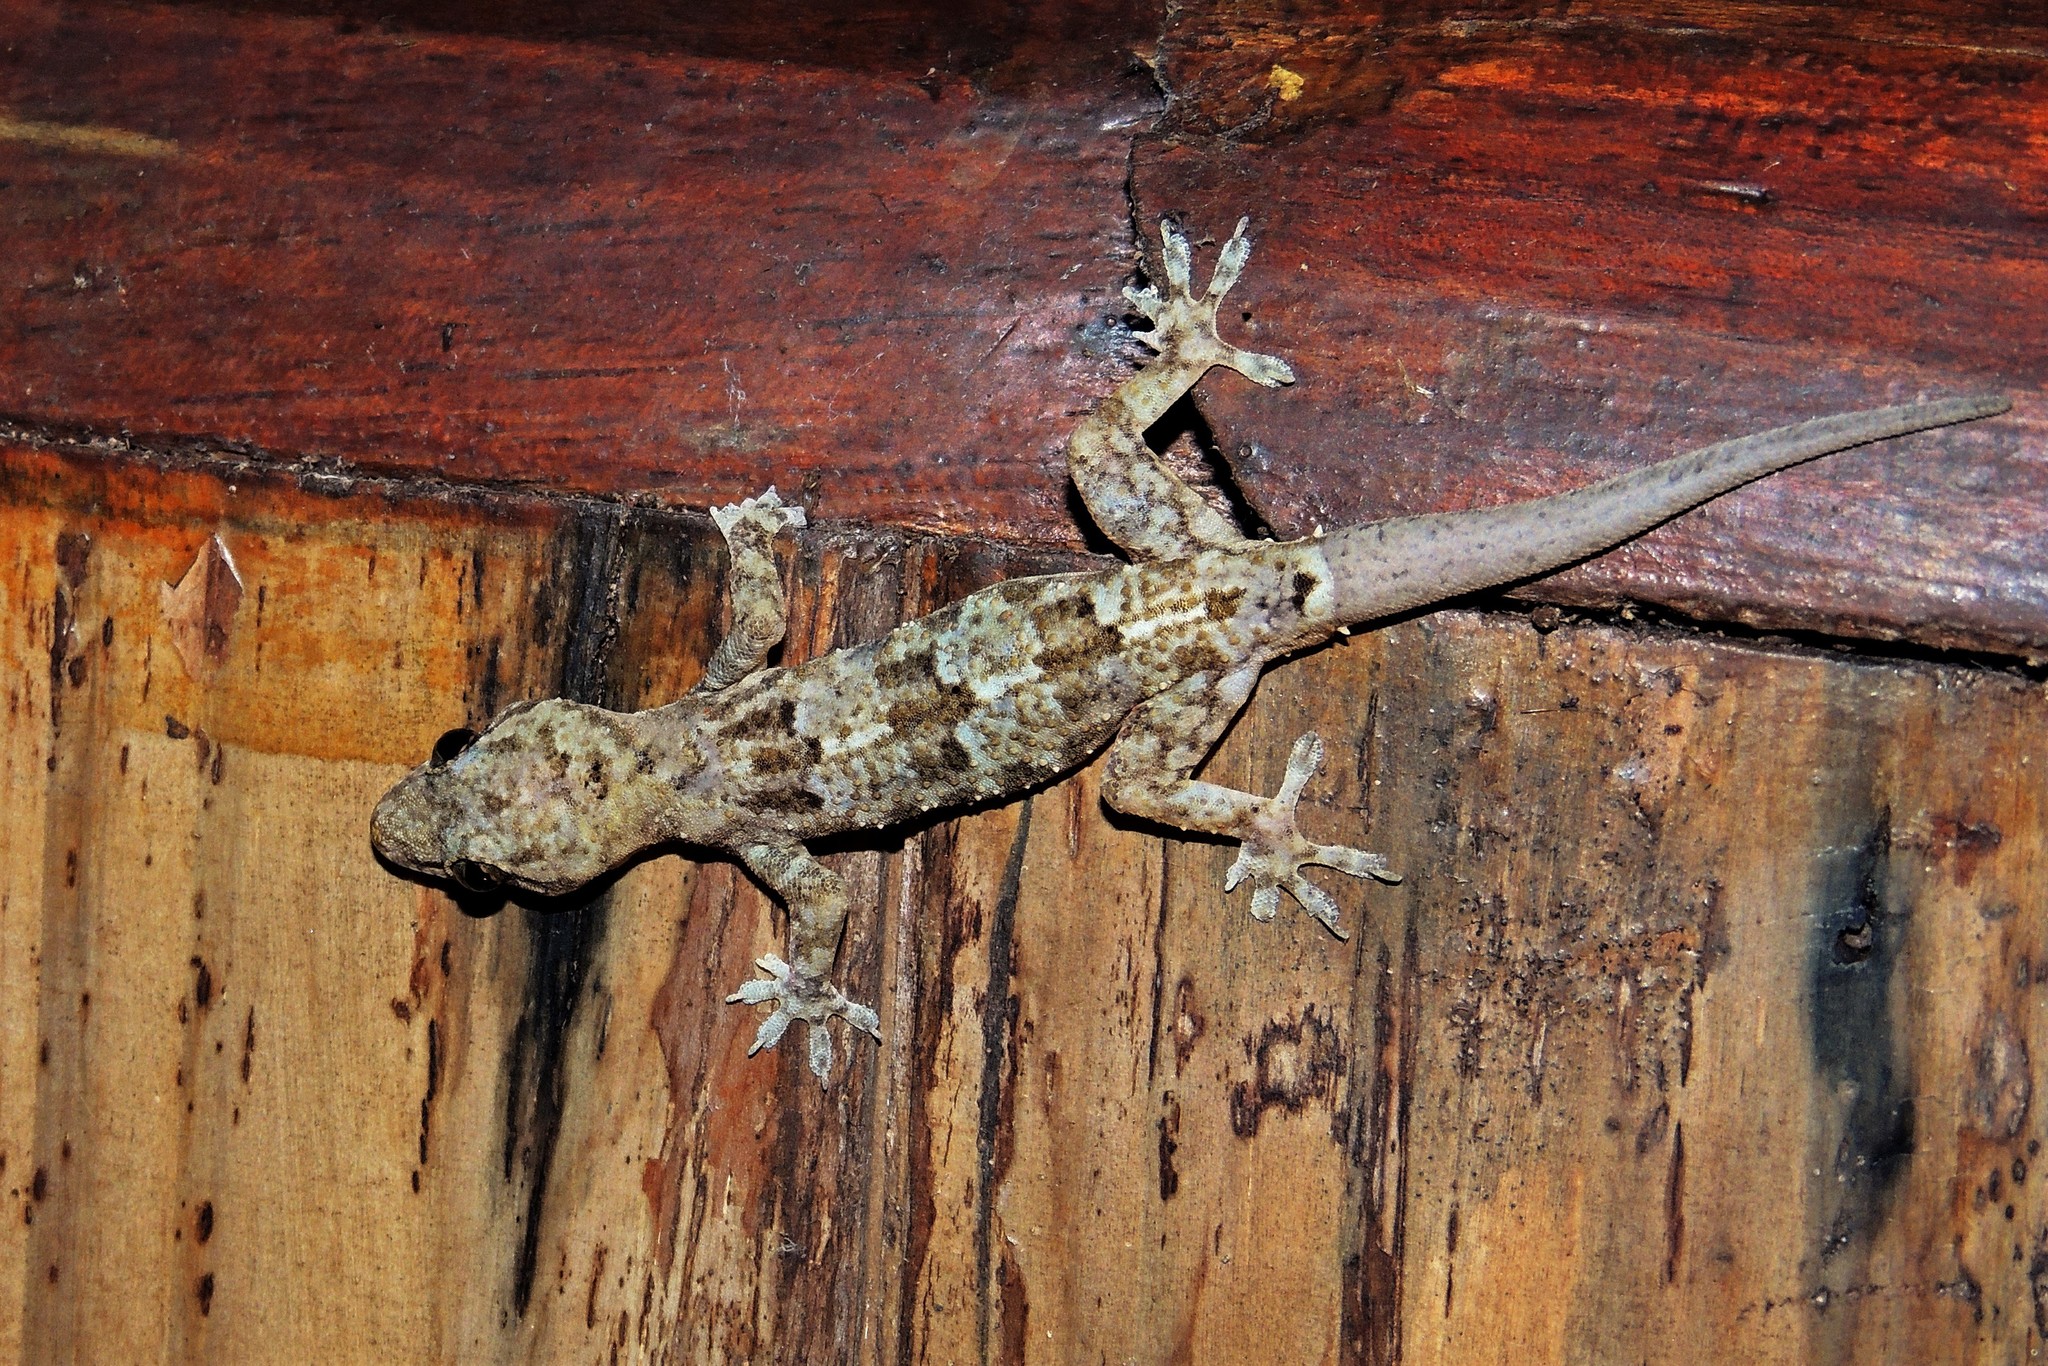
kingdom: Animalia
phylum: Chordata
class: Squamata
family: Gekkonidae
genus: Hemidactylus
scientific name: Hemidactylus mabouia
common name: House gecko
